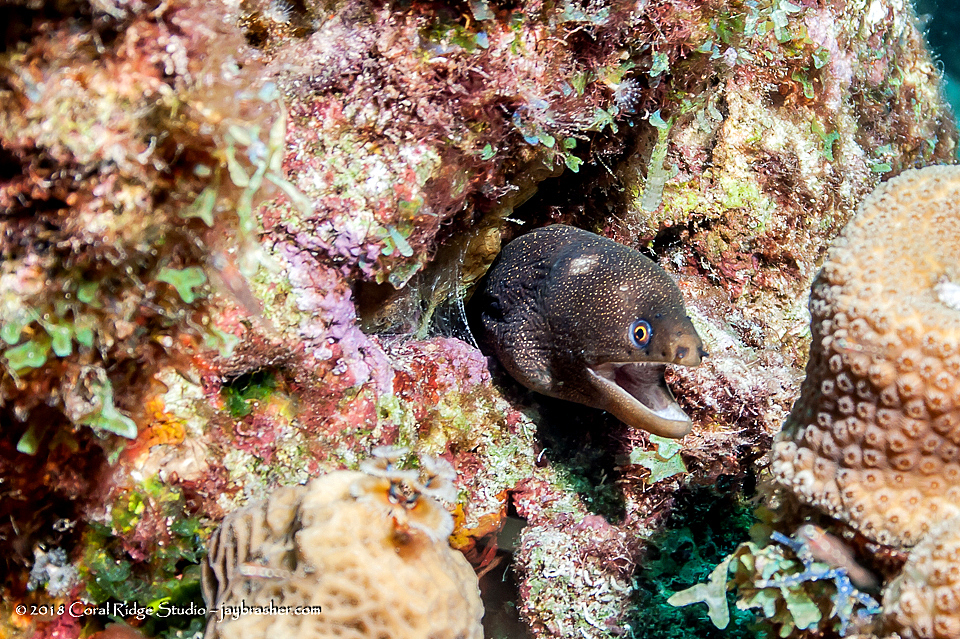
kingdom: Animalia
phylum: Chordata
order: Anguilliformes
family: Muraenidae
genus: Gymnothorax
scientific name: Gymnothorax miliaris
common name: Goldentail moray
